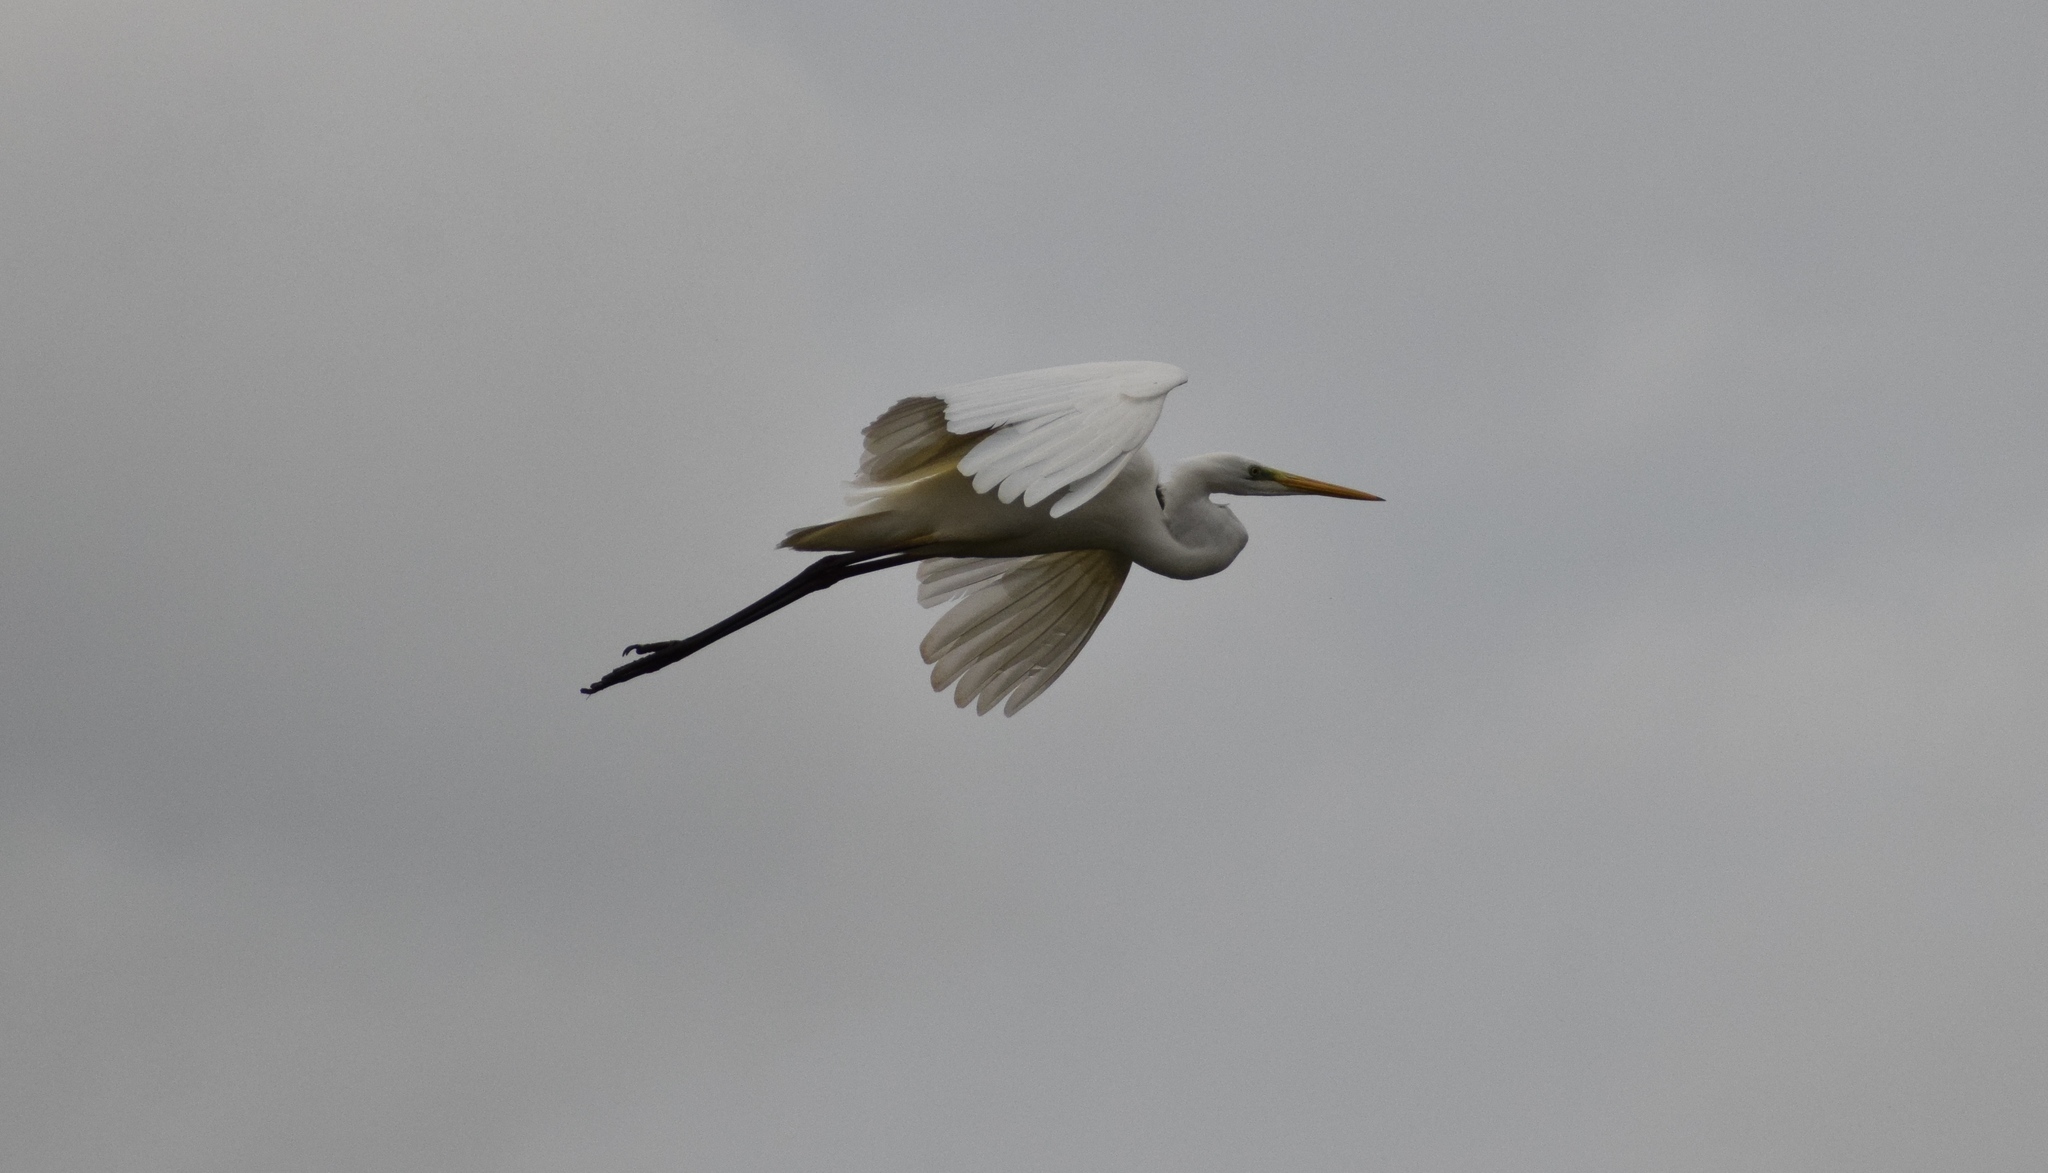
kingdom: Animalia
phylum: Chordata
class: Aves
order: Pelecaniformes
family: Ardeidae
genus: Ardea
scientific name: Ardea alba
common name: Great egret
